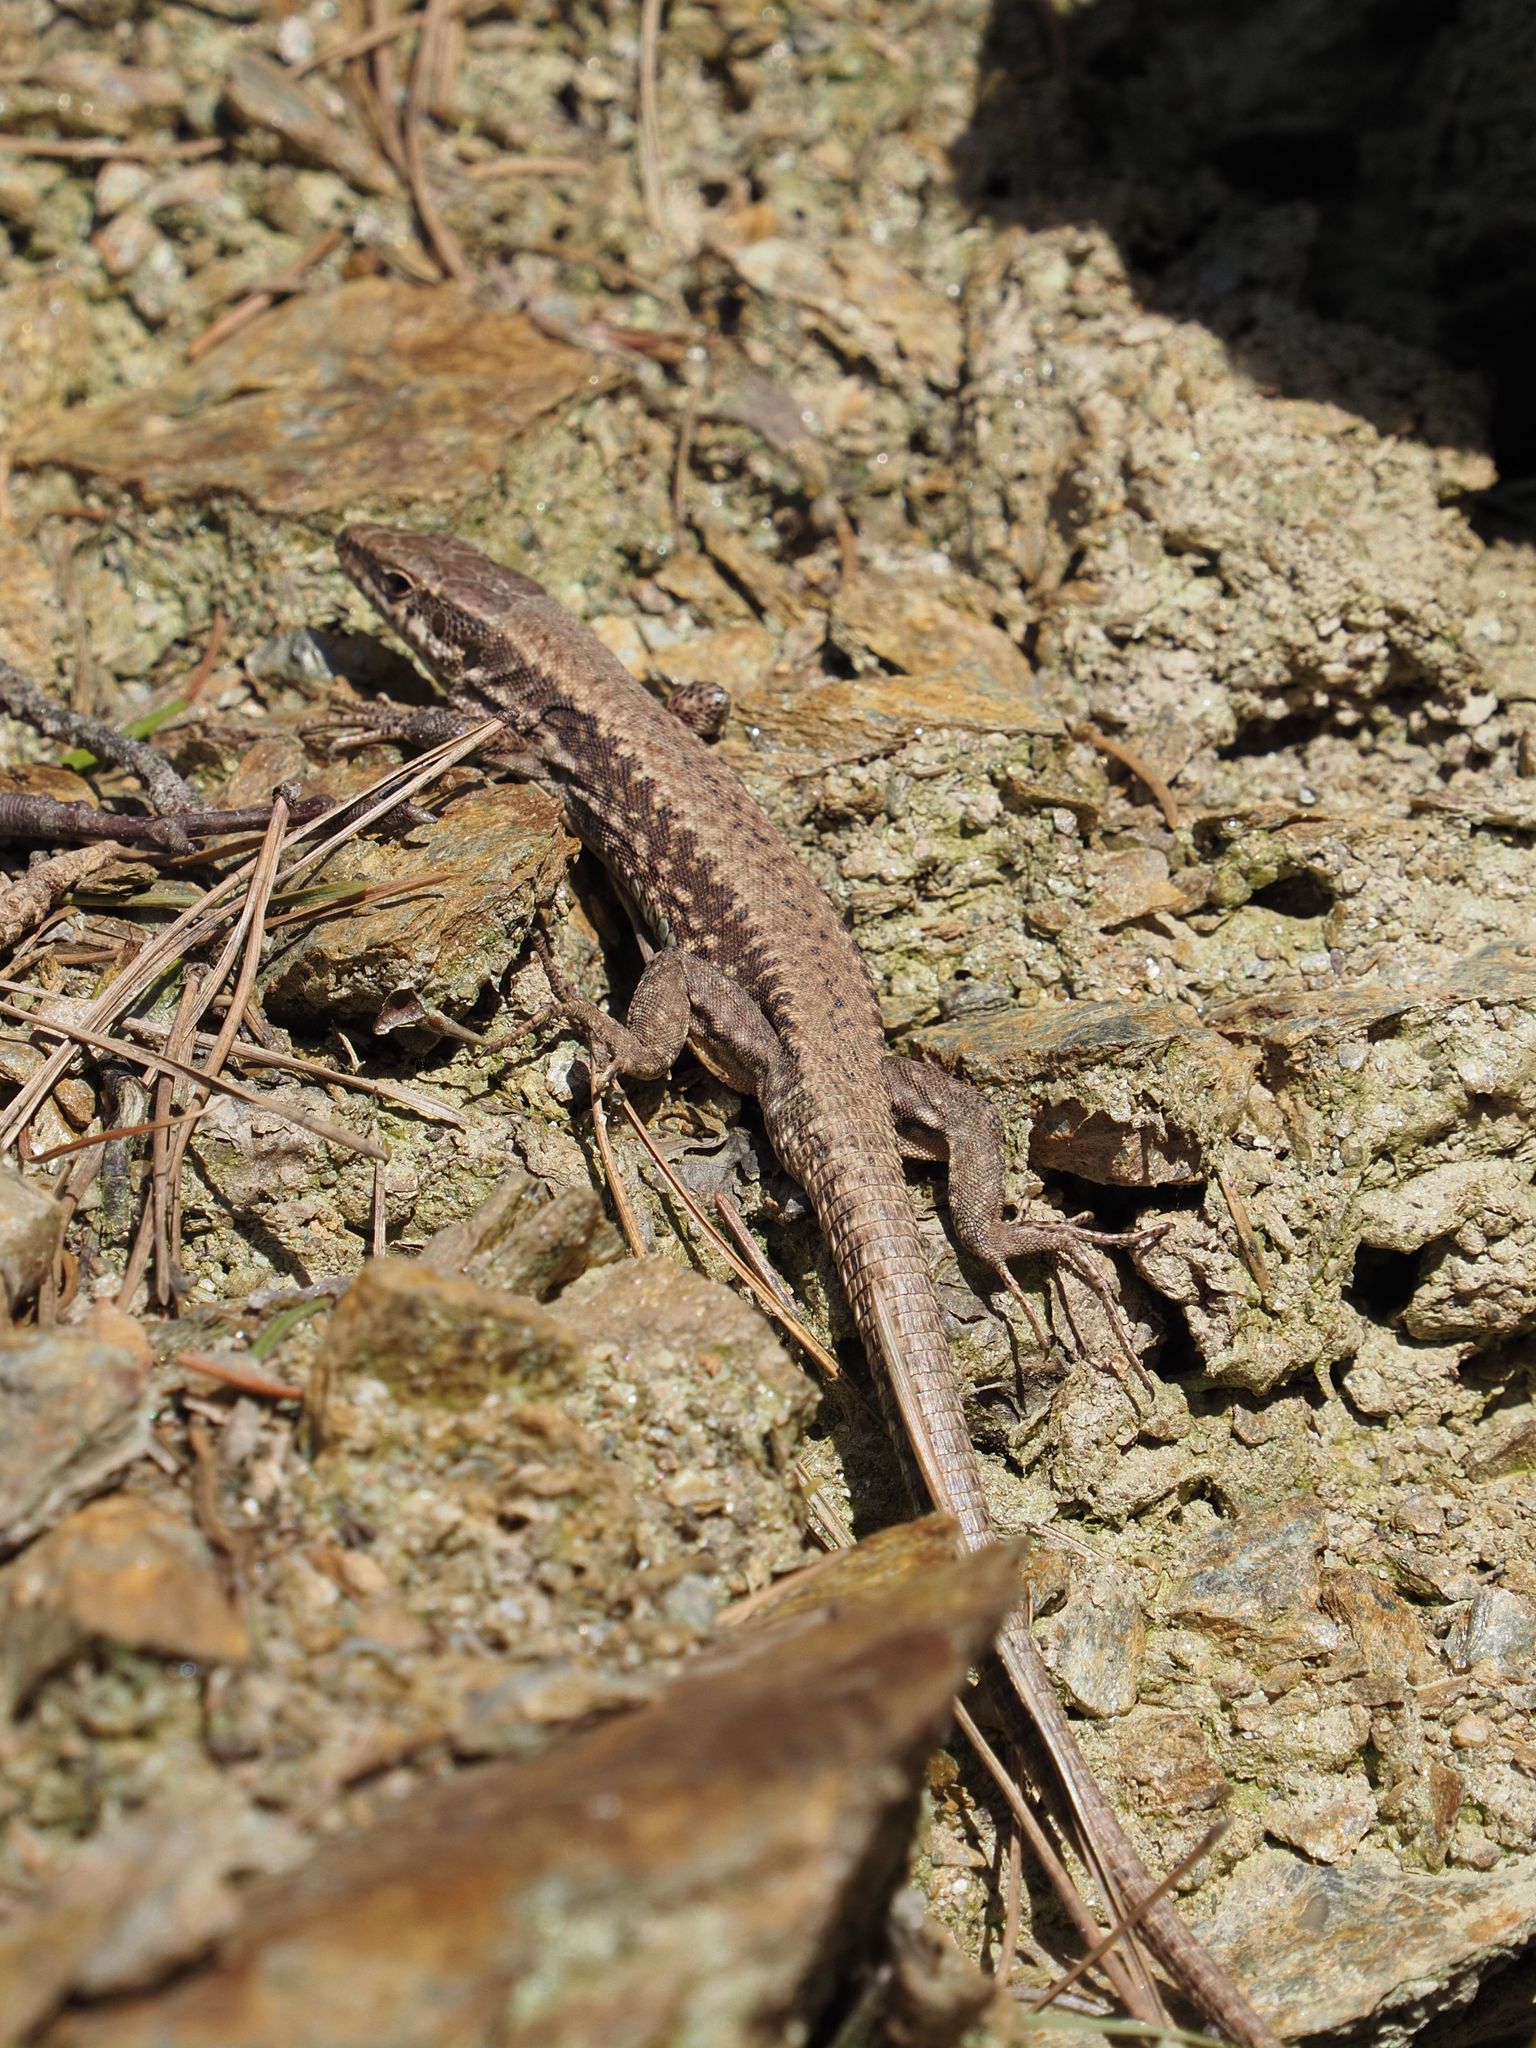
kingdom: Animalia
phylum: Chordata
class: Squamata
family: Lacertidae
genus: Podarcis
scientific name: Podarcis muralis
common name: Common wall lizard
